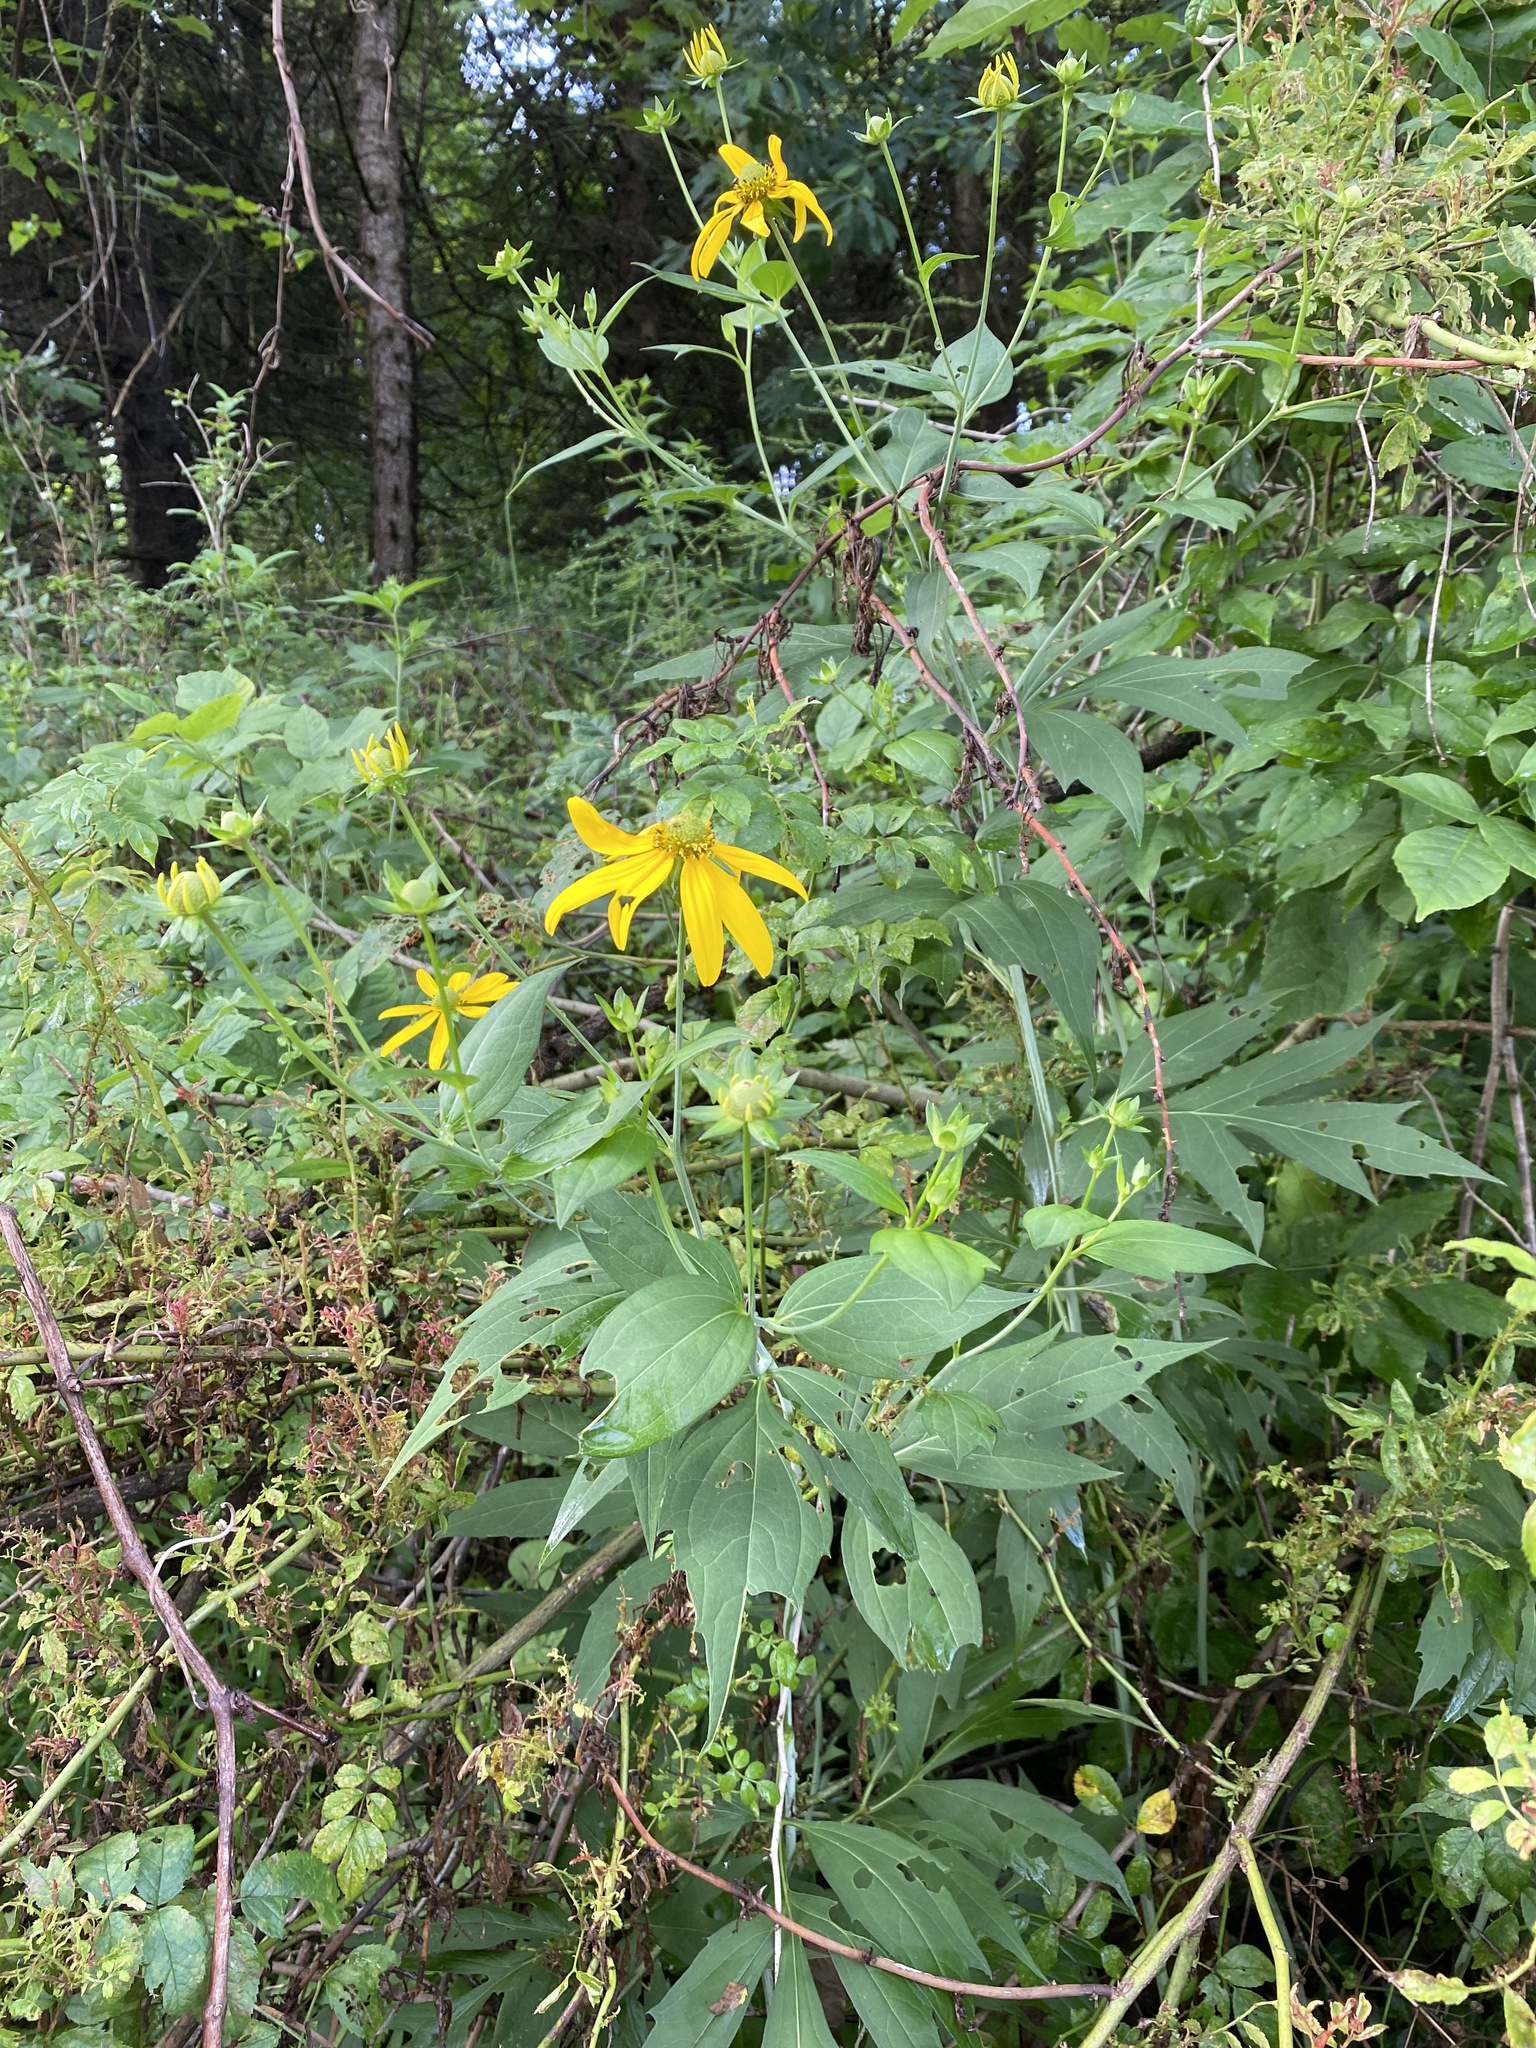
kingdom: Plantae
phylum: Tracheophyta
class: Magnoliopsida
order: Asterales
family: Asteraceae
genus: Rudbeckia
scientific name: Rudbeckia laciniata
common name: Coneflower
